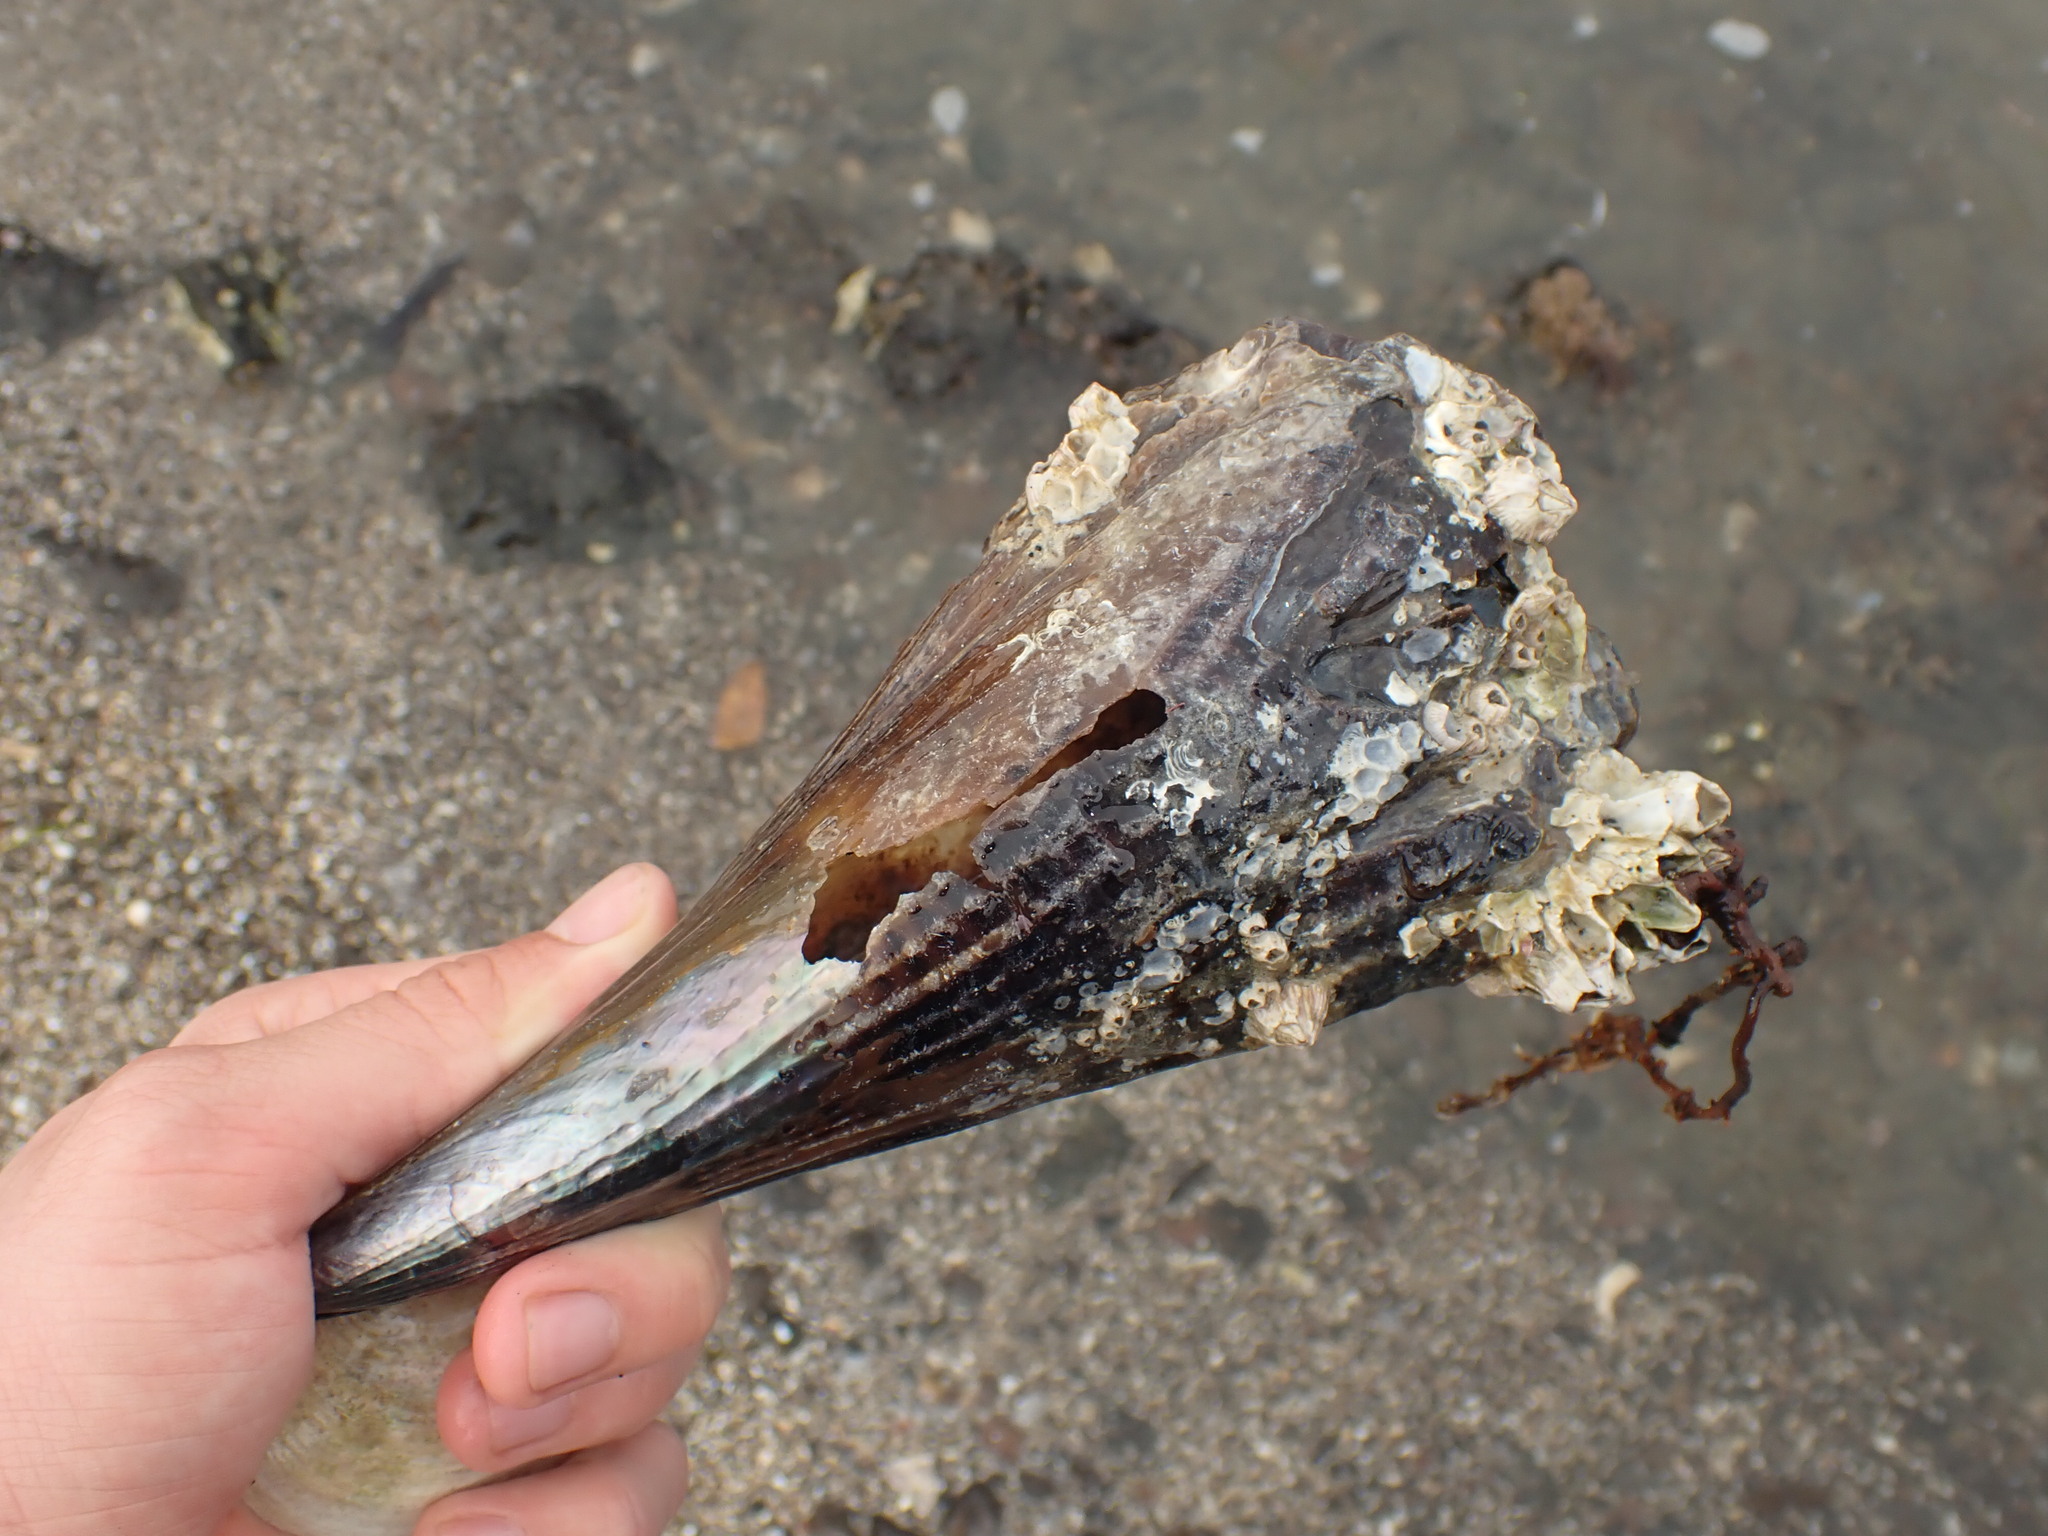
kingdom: Animalia
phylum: Mollusca
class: Bivalvia
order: Ostreida
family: Pinnidae
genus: Atrina
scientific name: Atrina zelandica
